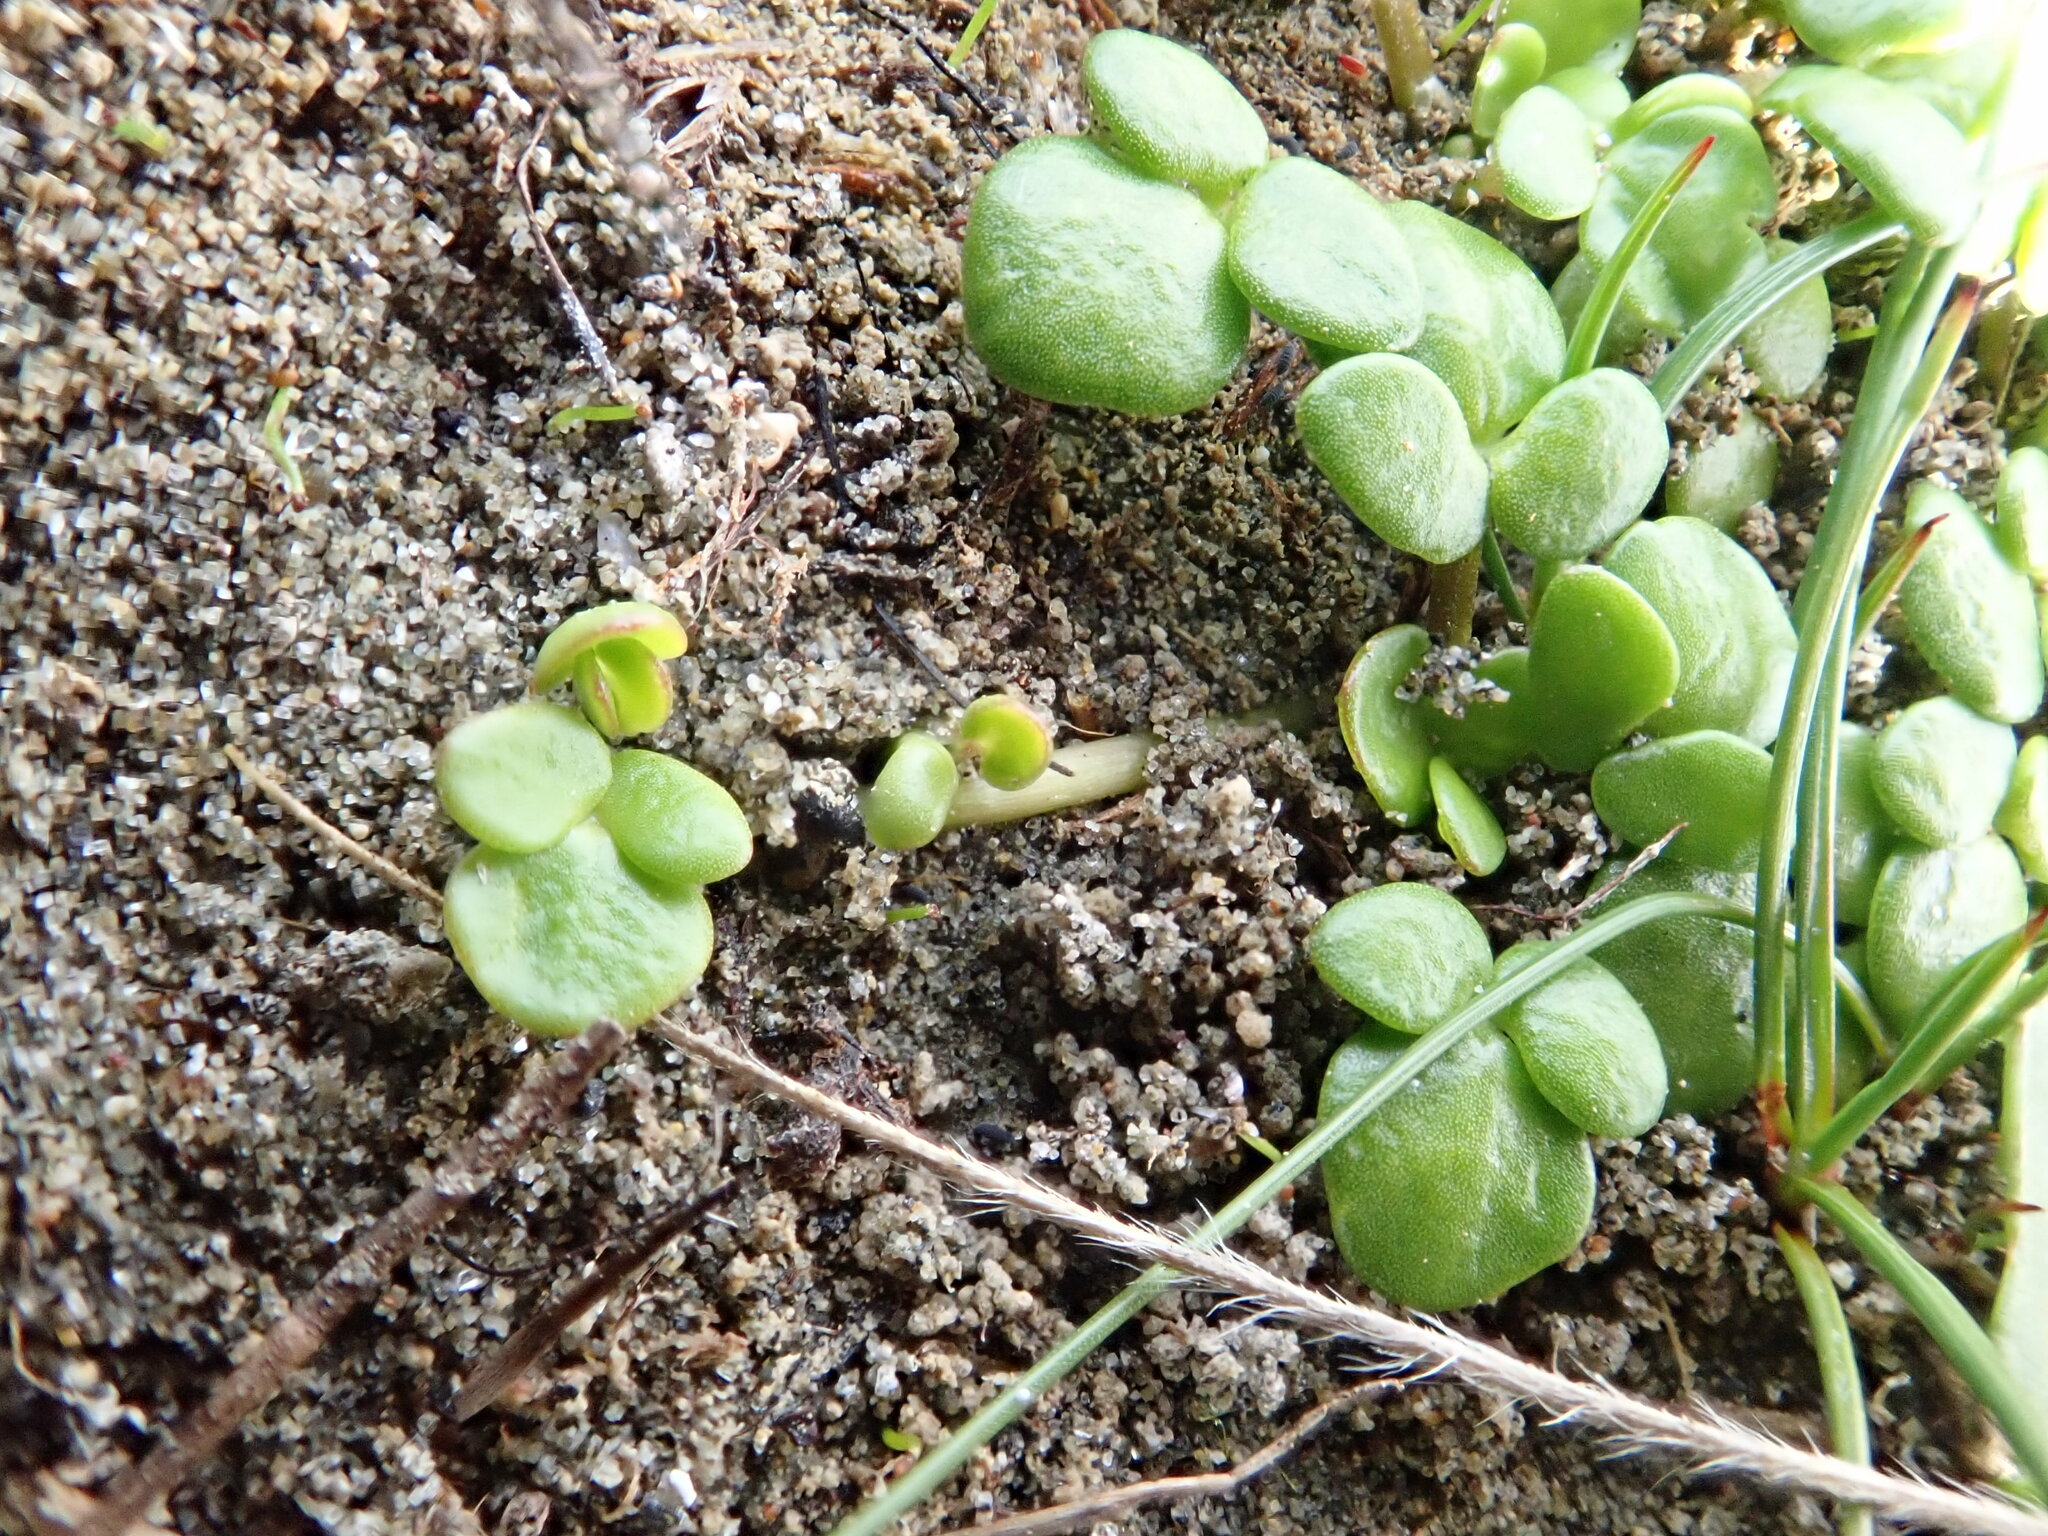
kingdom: Plantae
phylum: Tracheophyta
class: Magnoliopsida
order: Ranunculales
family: Ranunculaceae
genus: Ranunculus
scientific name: Ranunculus acaulis
